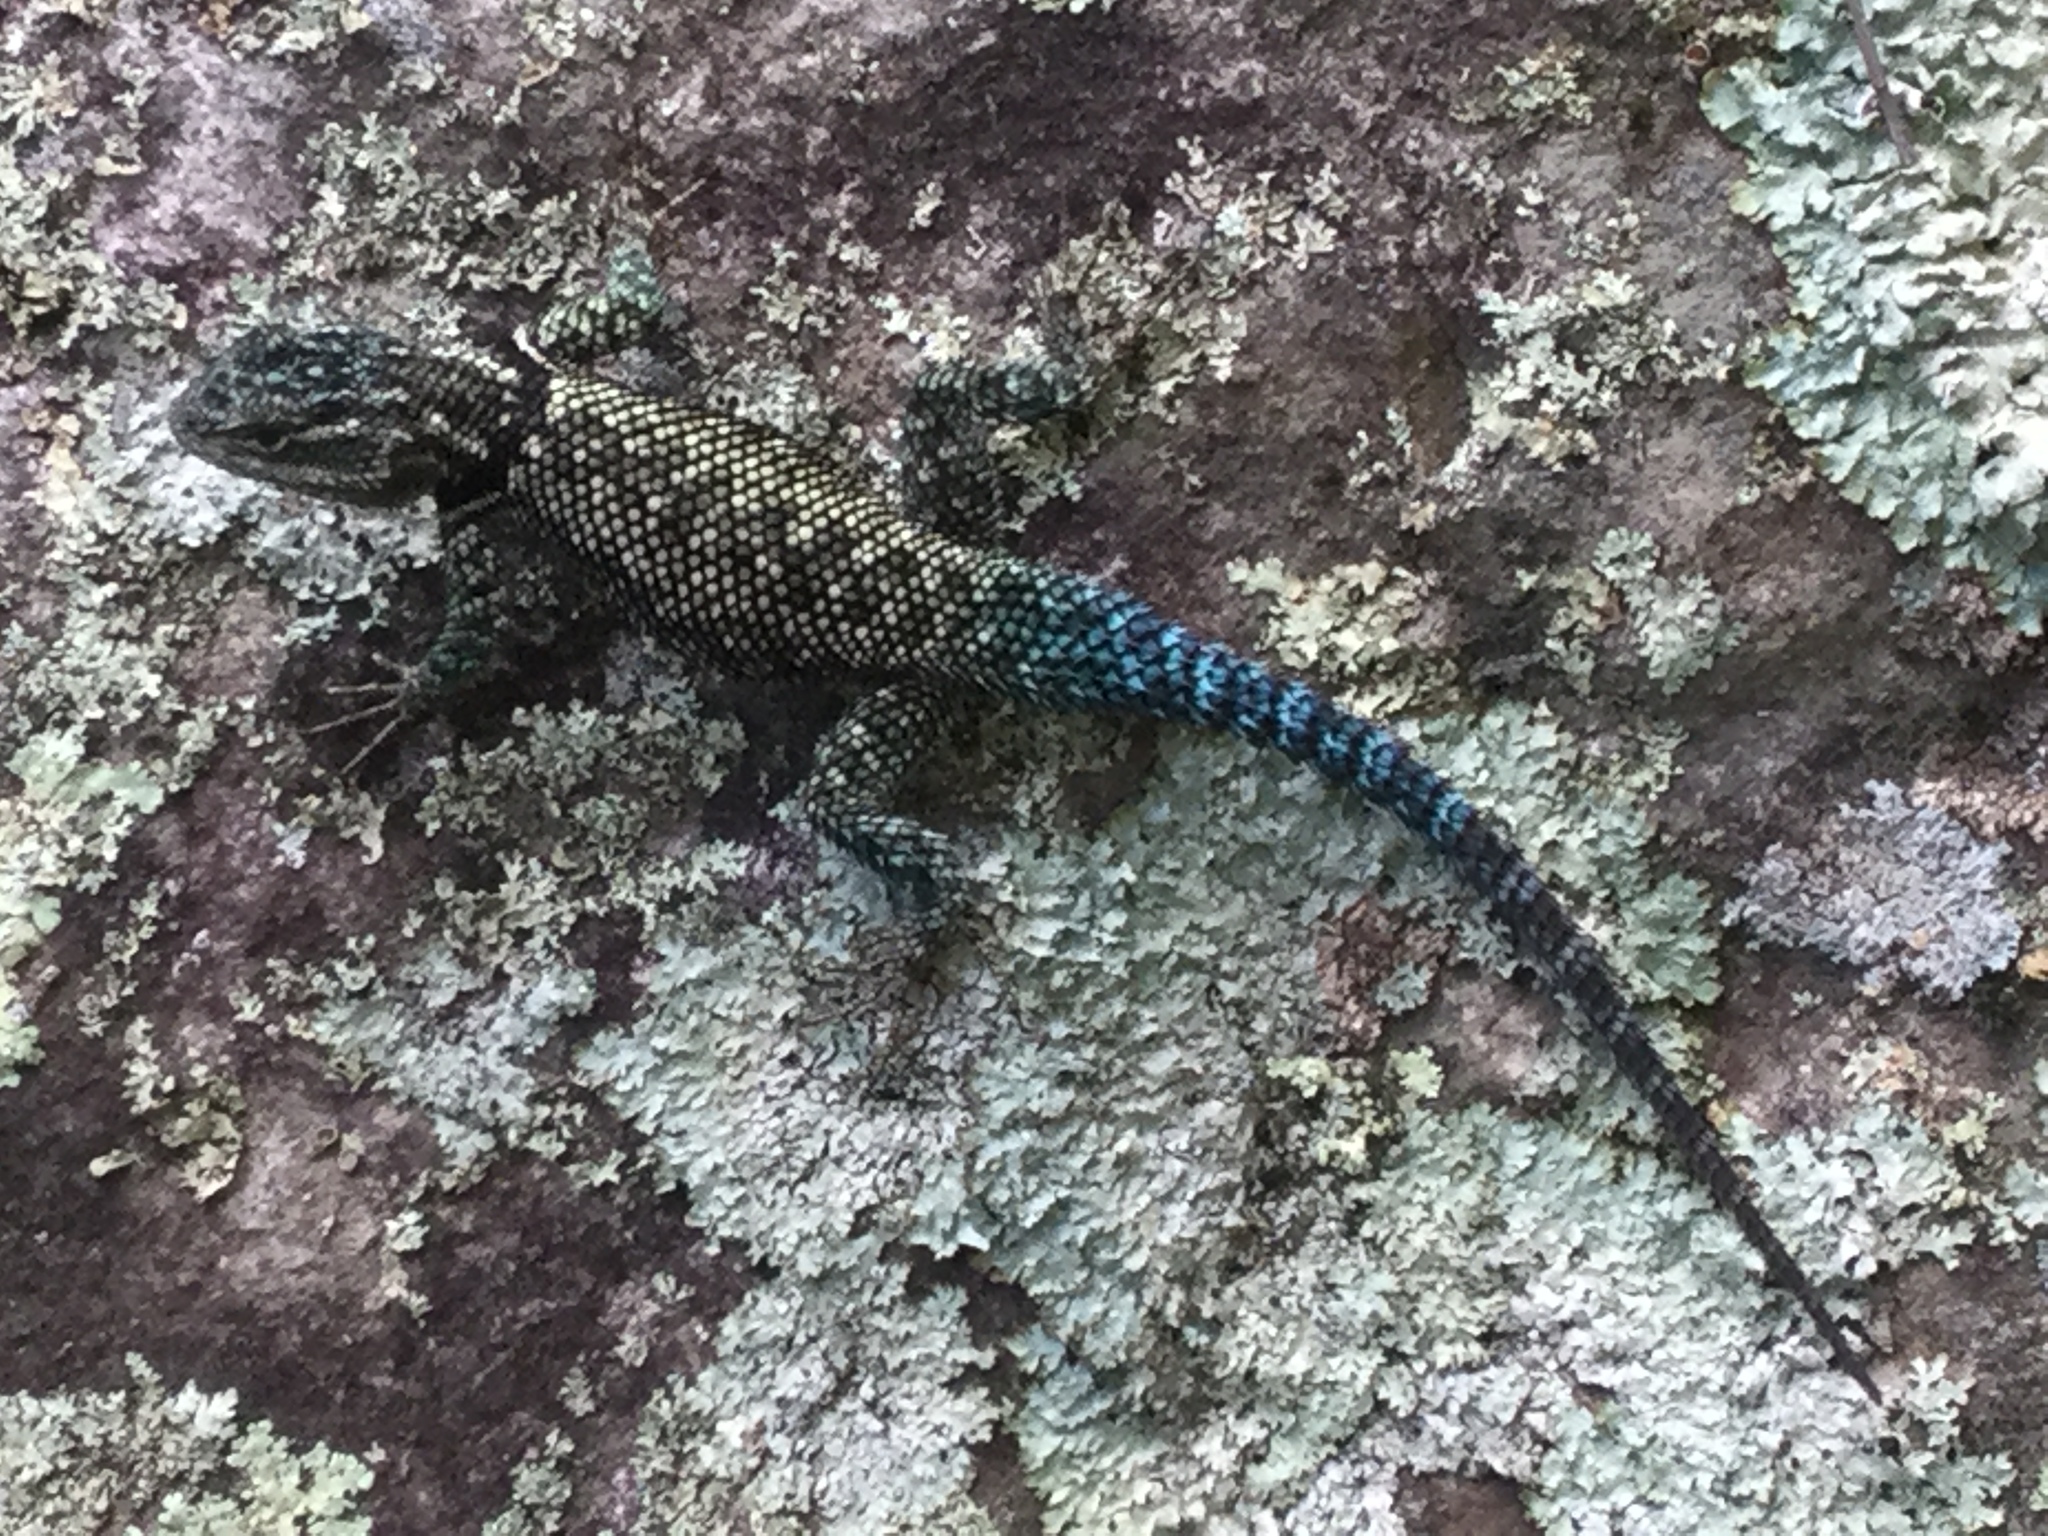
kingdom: Animalia
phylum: Chordata
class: Squamata
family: Phrynosomatidae
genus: Sceloporus
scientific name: Sceloporus jarrovii
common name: Yarrow's spiny lizard
